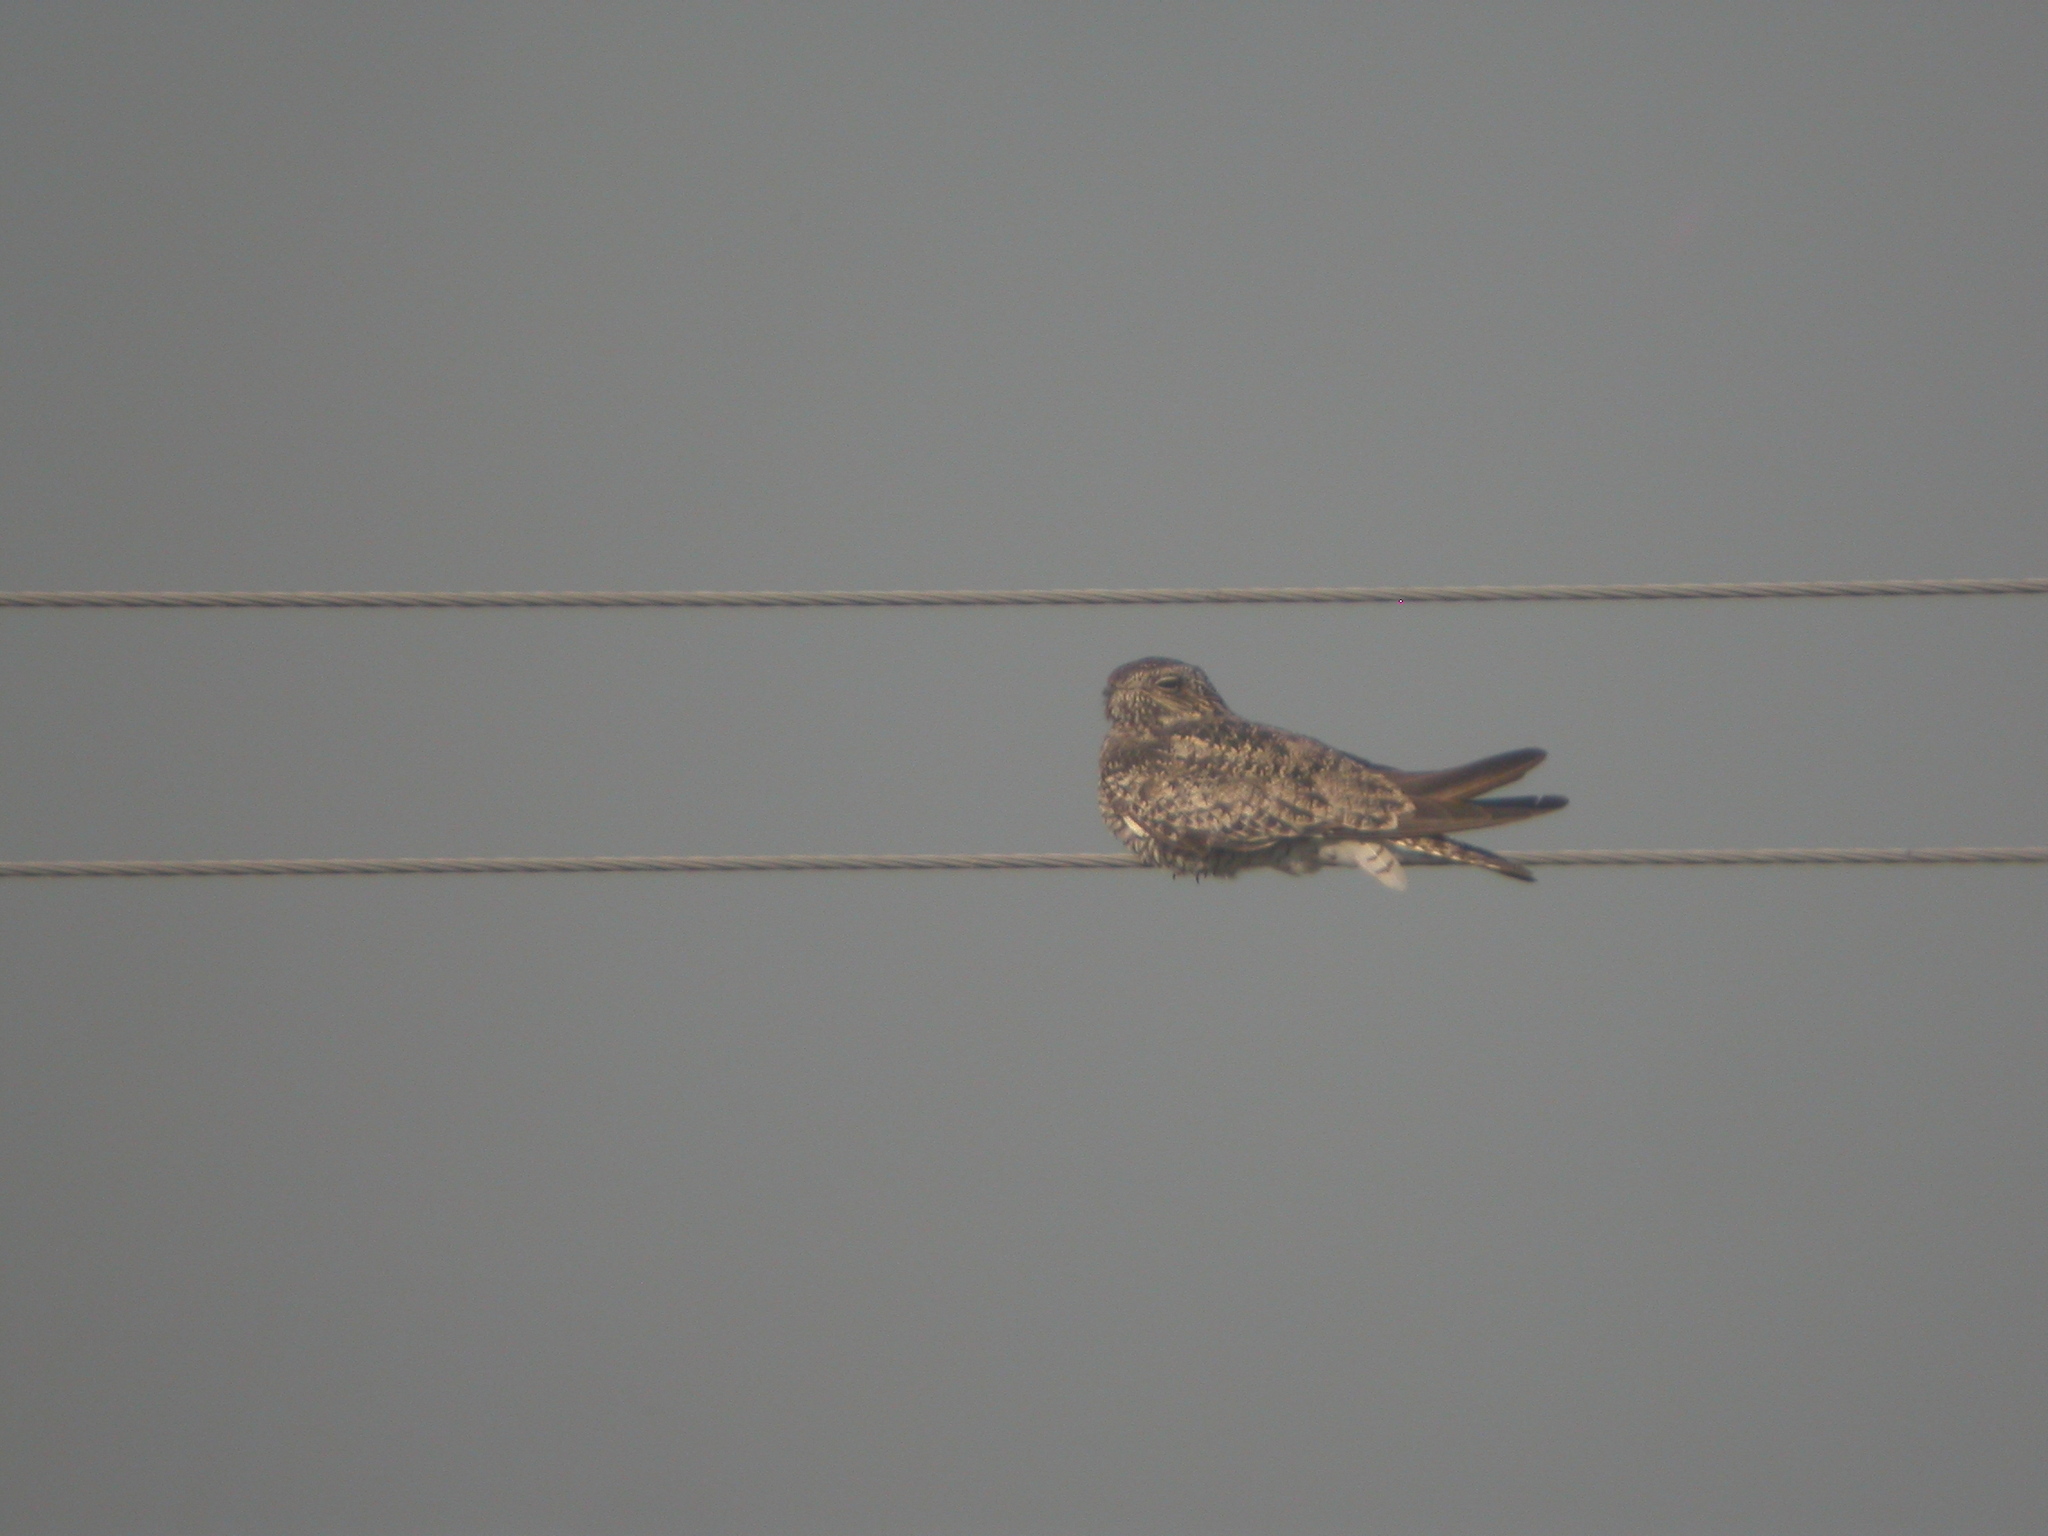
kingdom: Animalia
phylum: Chordata
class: Aves
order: Caprimulgiformes
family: Caprimulgidae
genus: Chordeiles
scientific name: Chordeiles minor
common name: Common nighthawk
